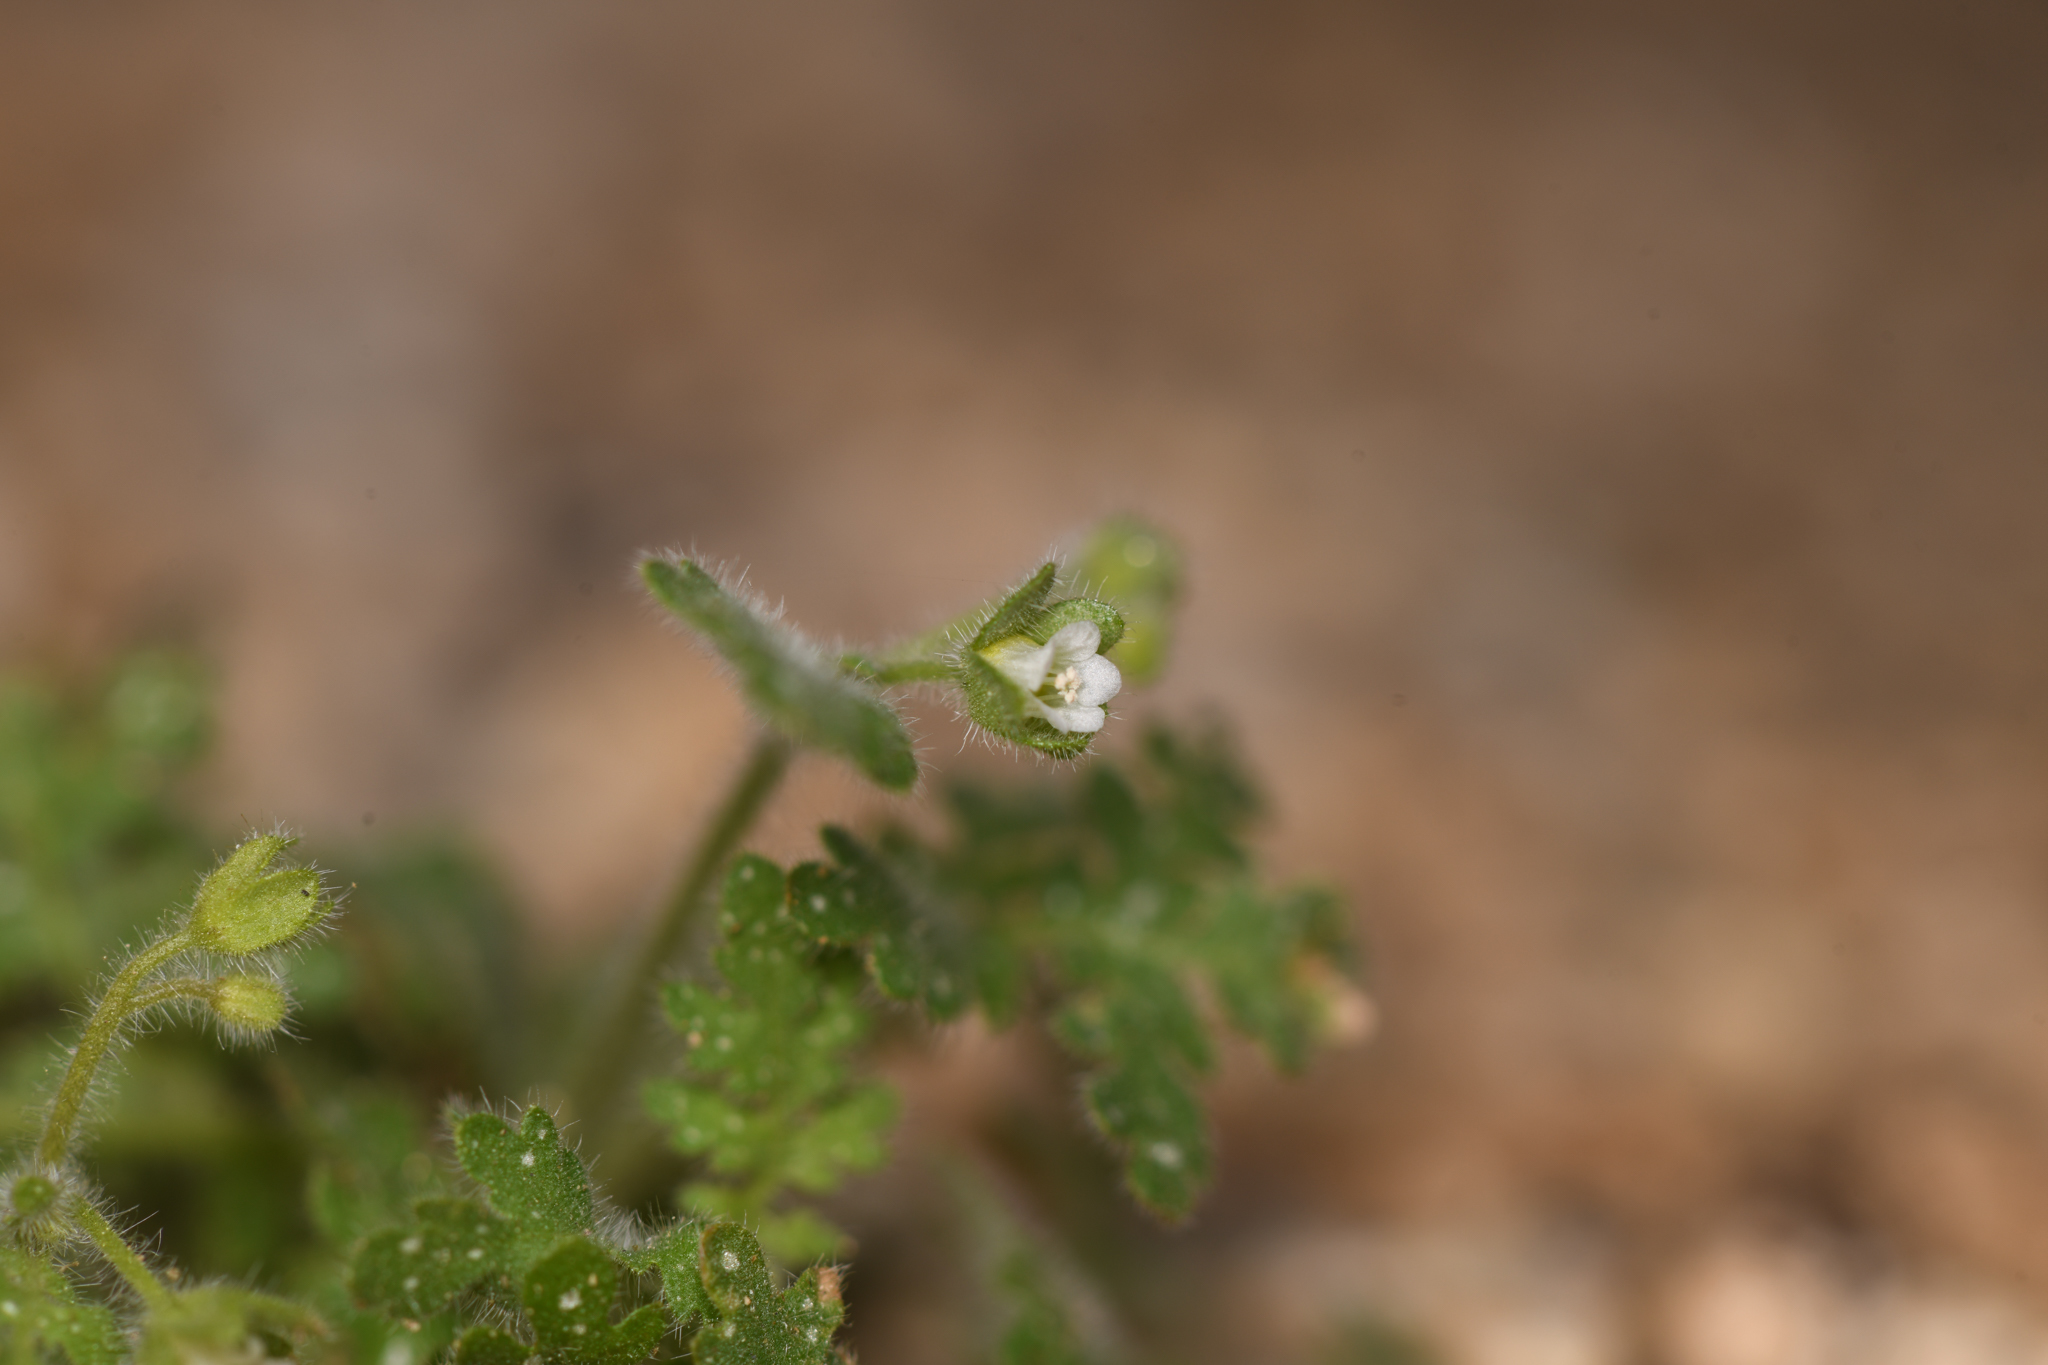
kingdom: Plantae
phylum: Tracheophyta
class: Magnoliopsida
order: Boraginales
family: Hydrophyllaceae
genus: Eucrypta
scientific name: Eucrypta chrysanthemifolia
